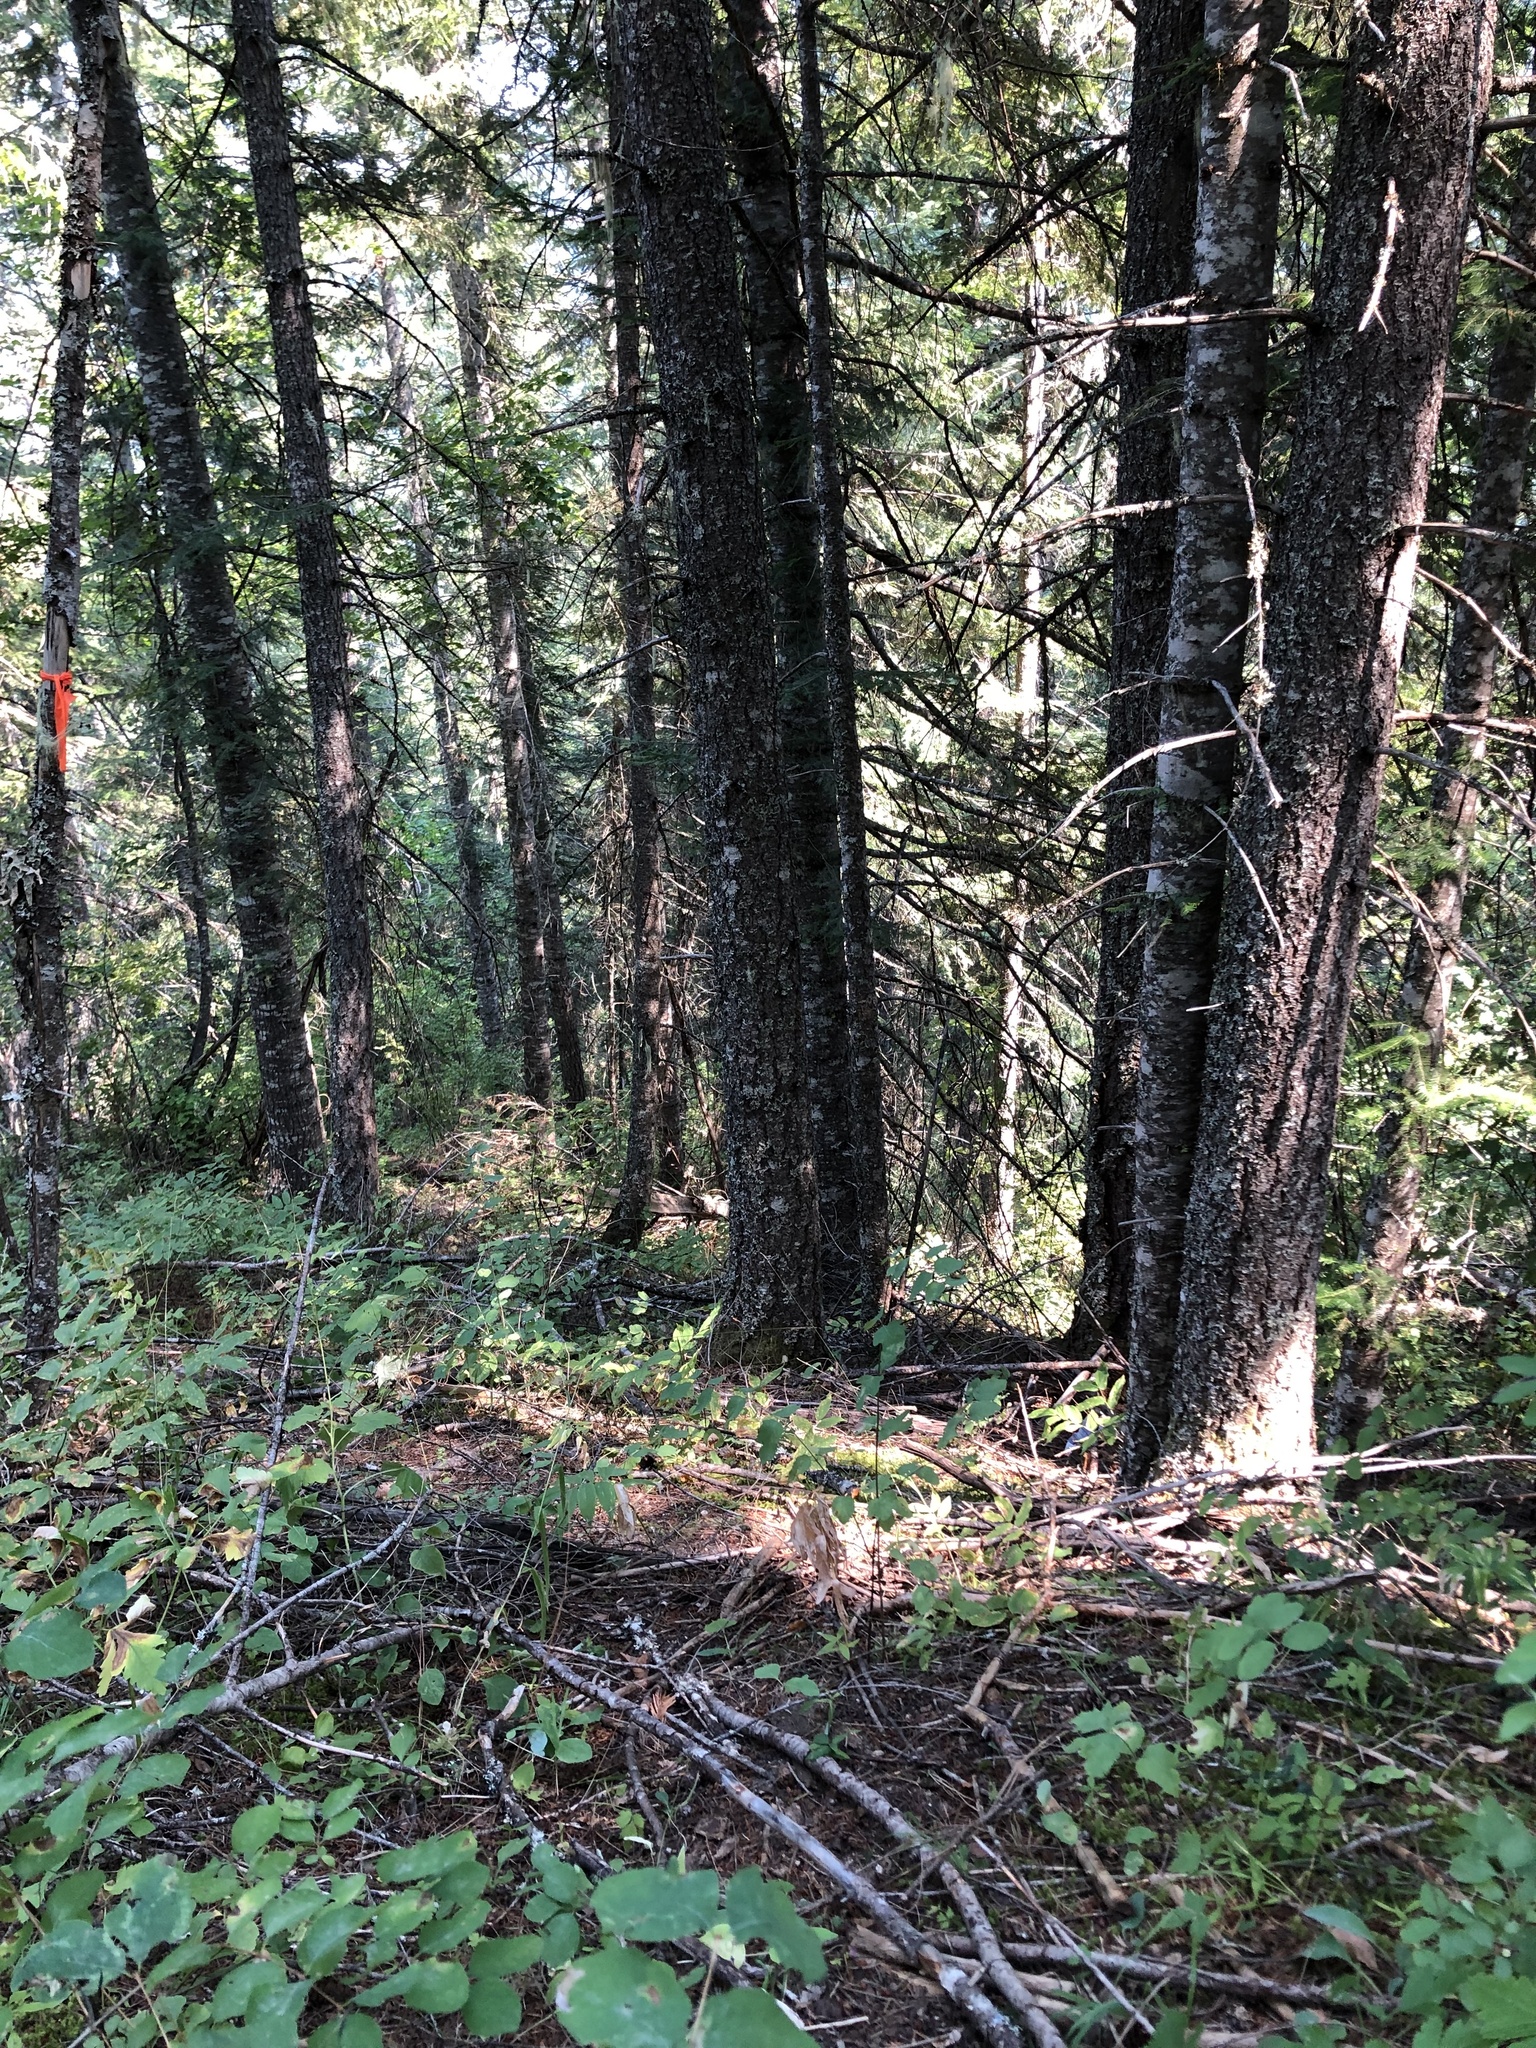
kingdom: Plantae
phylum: Tracheophyta
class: Magnoliopsida
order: Asterales
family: Asteraceae
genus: Adenocaulon
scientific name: Adenocaulon bicolor
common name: Trailplant
